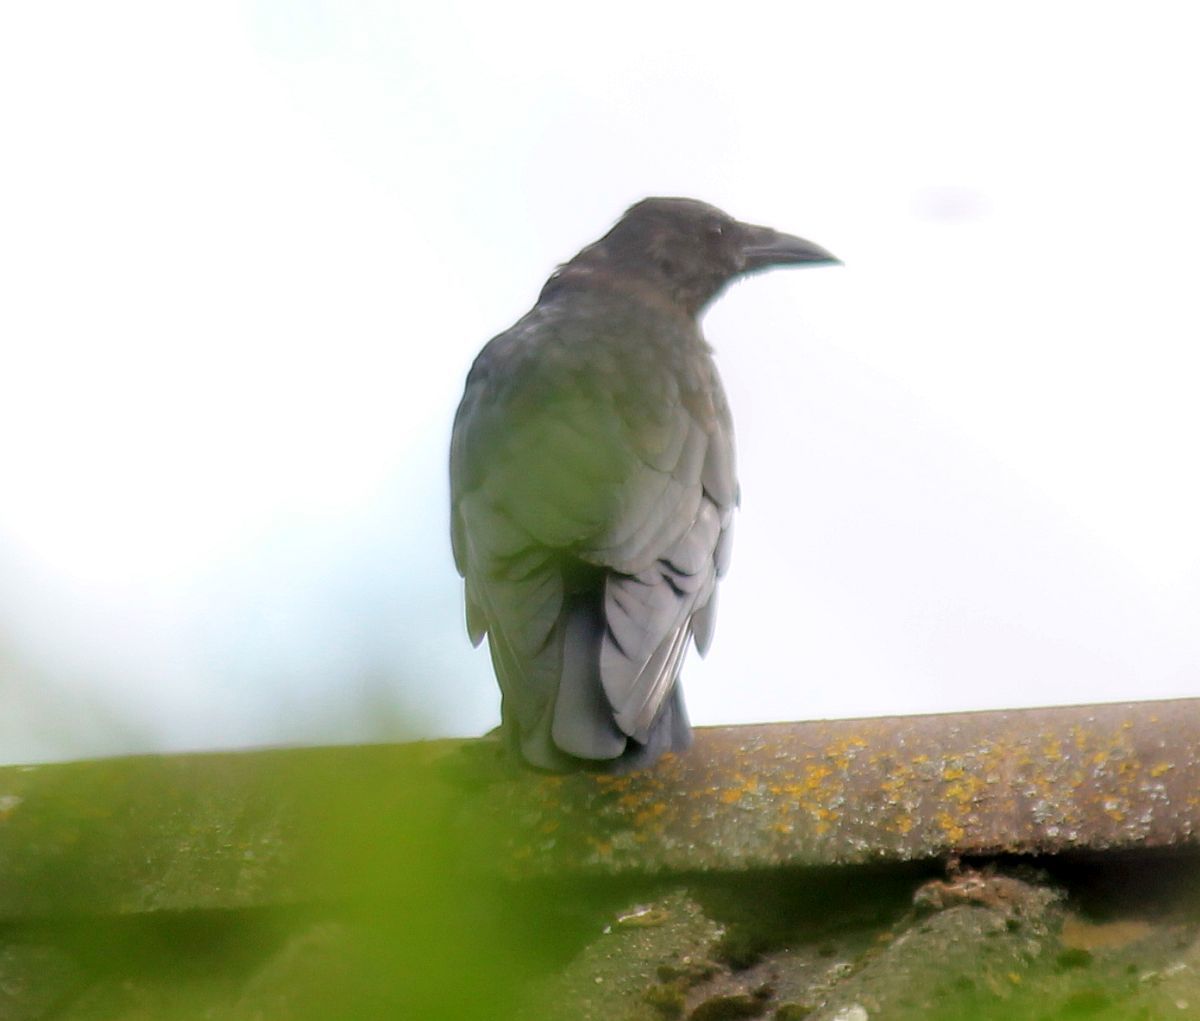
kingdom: Animalia
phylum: Chordata
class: Aves
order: Passeriformes
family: Corvidae
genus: Corvus
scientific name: Corvus corone
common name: Carrion crow
